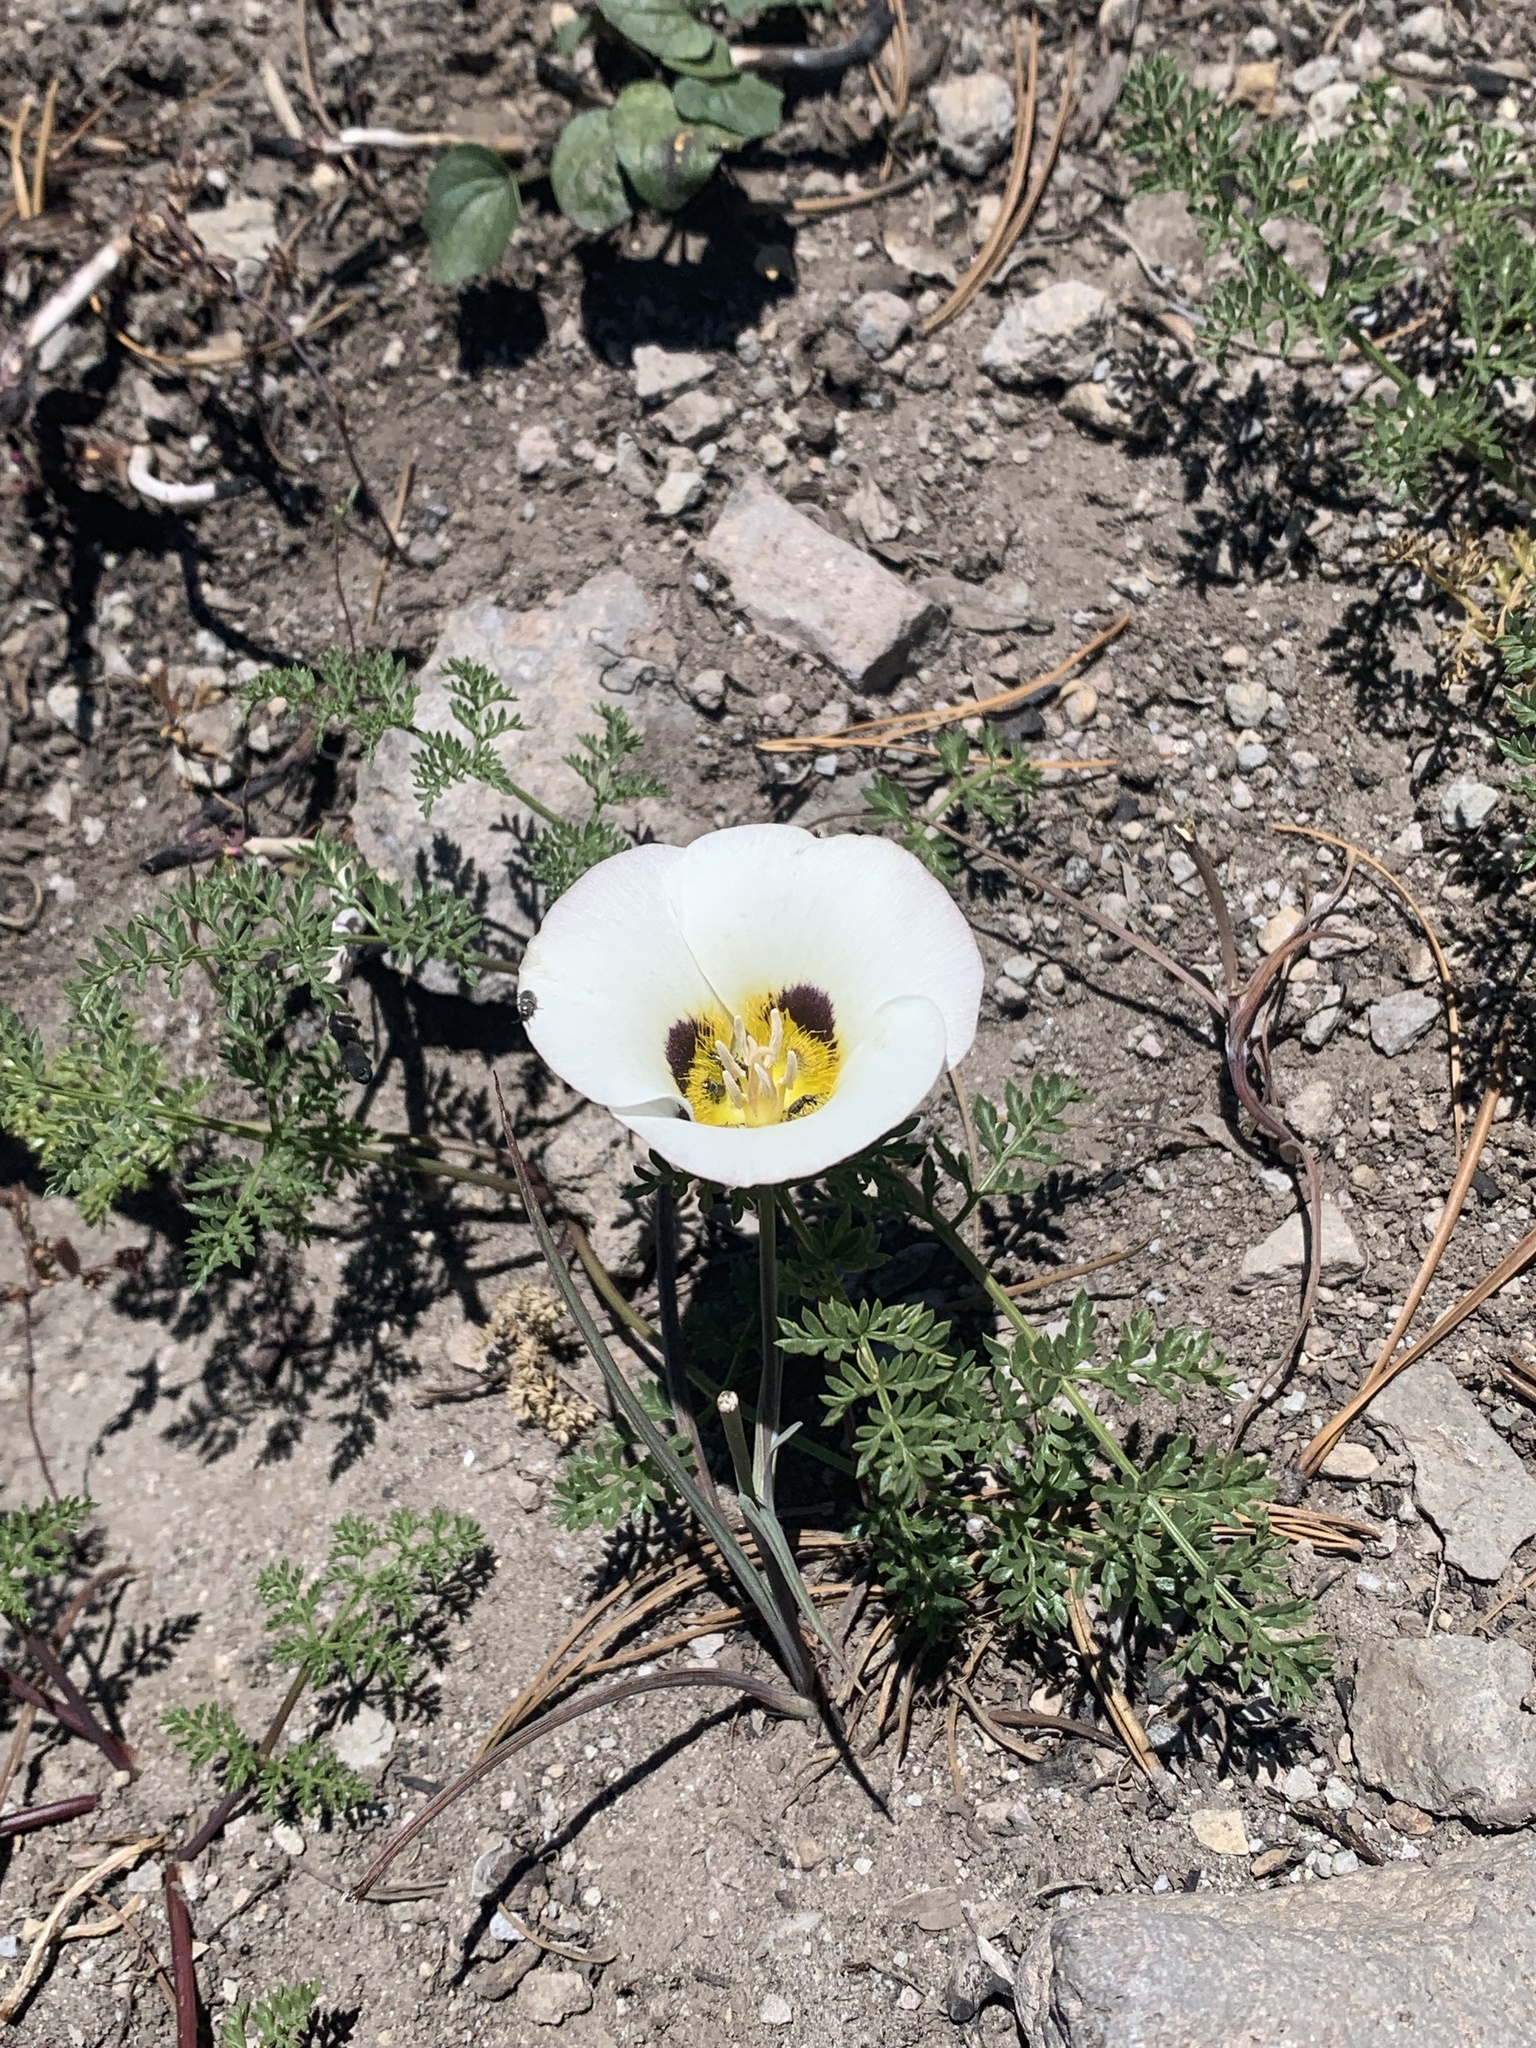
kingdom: Plantae
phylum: Tracheophyta
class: Liliopsida
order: Liliales
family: Liliaceae
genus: Calochortus
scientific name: Calochortus leichtlinii
